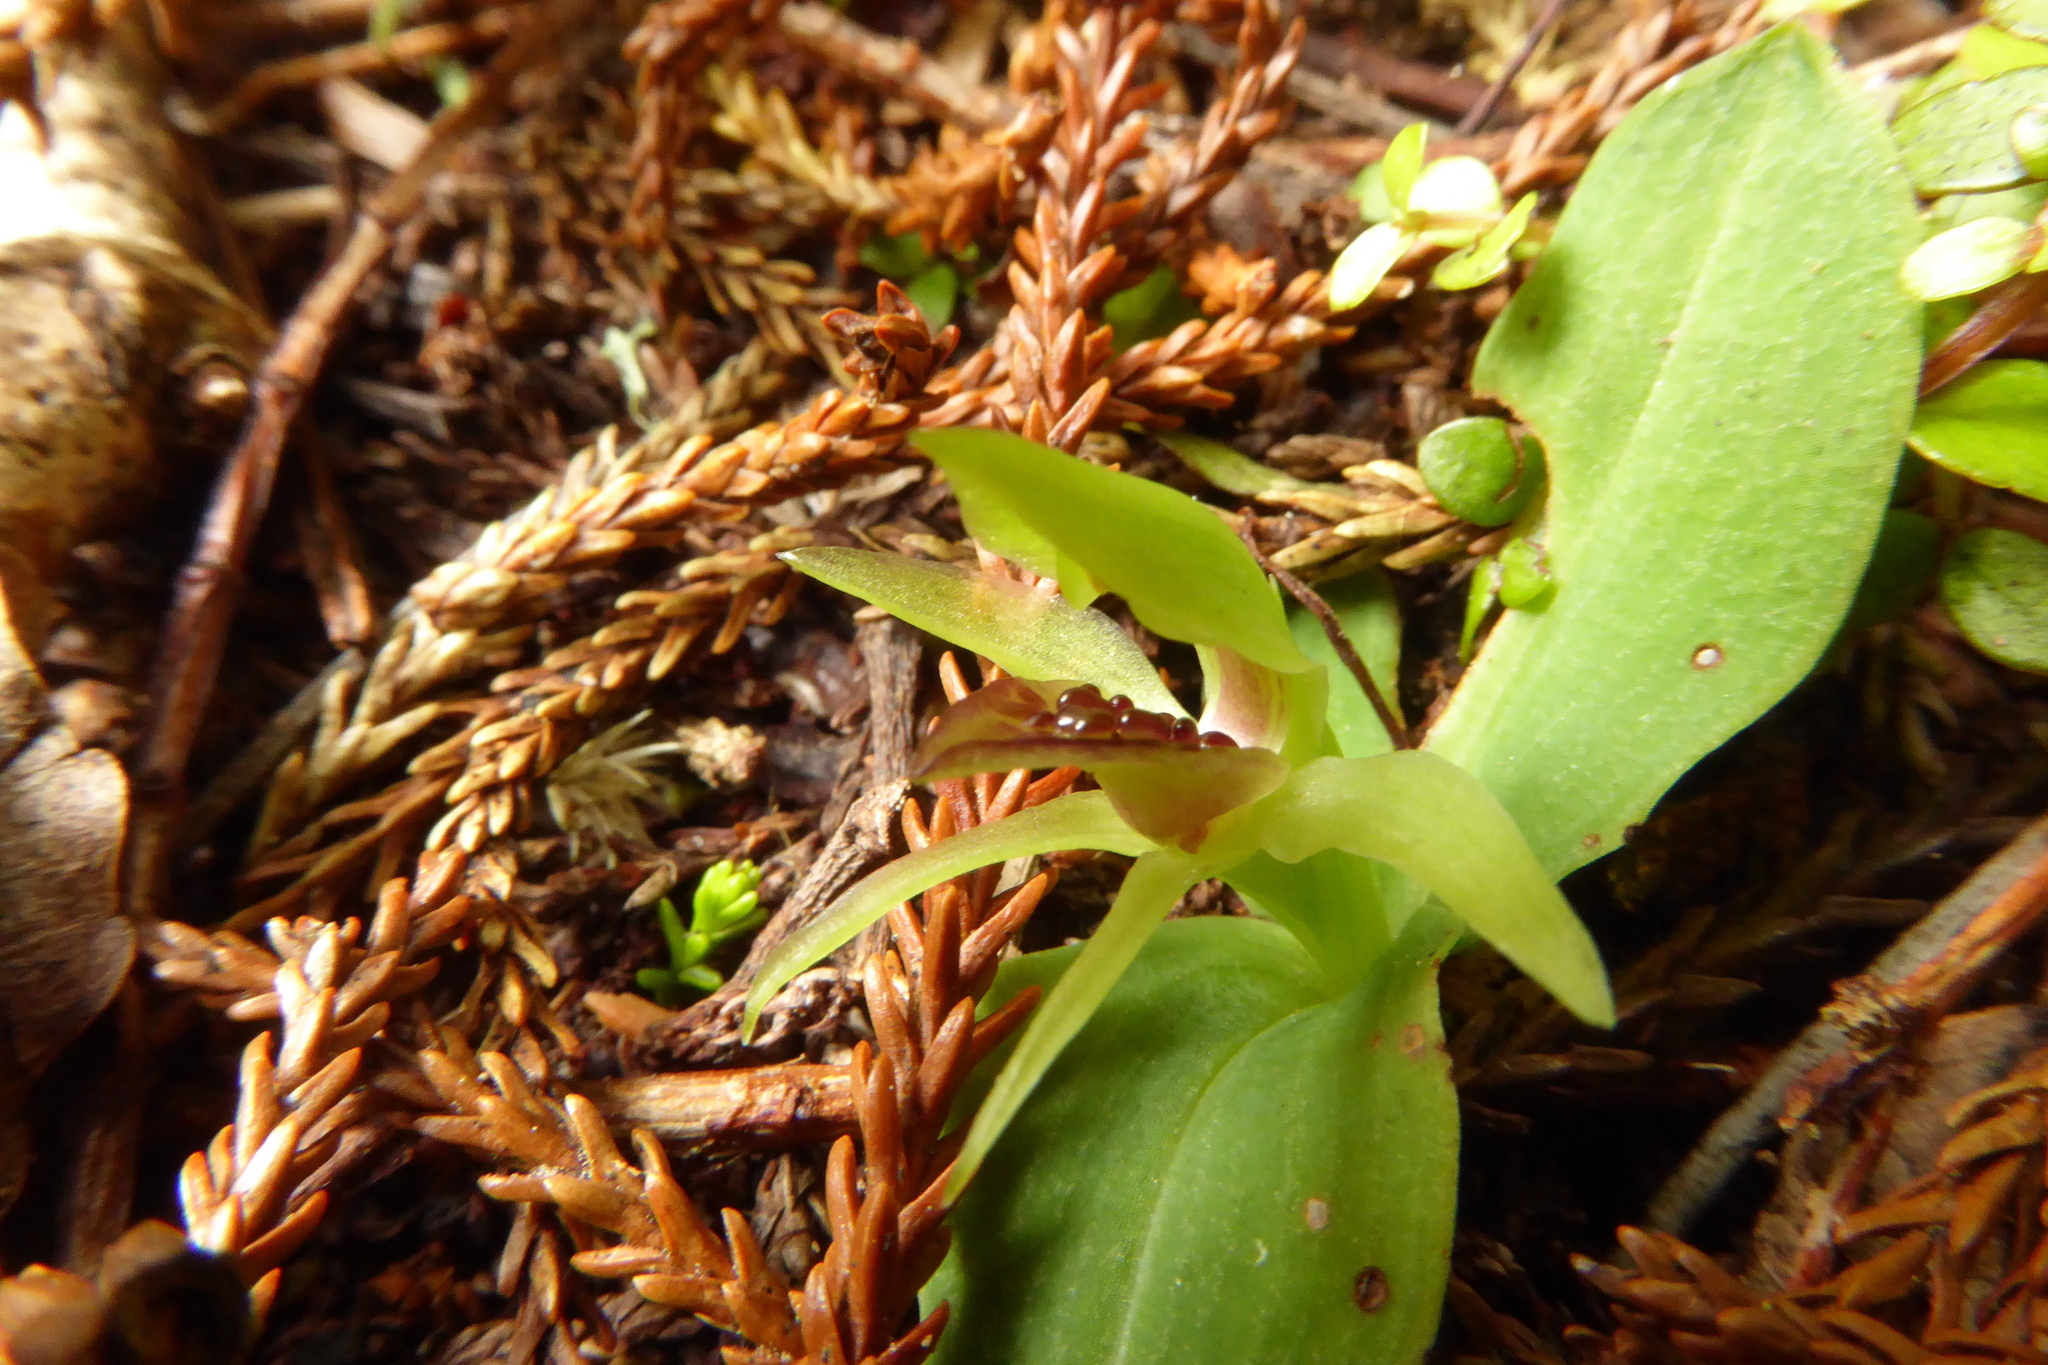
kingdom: Plantae
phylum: Tracheophyta
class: Liliopsida
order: Asparagales
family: Orchidaceae
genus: Chiloglottis
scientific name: Chiloglottis cornuta
